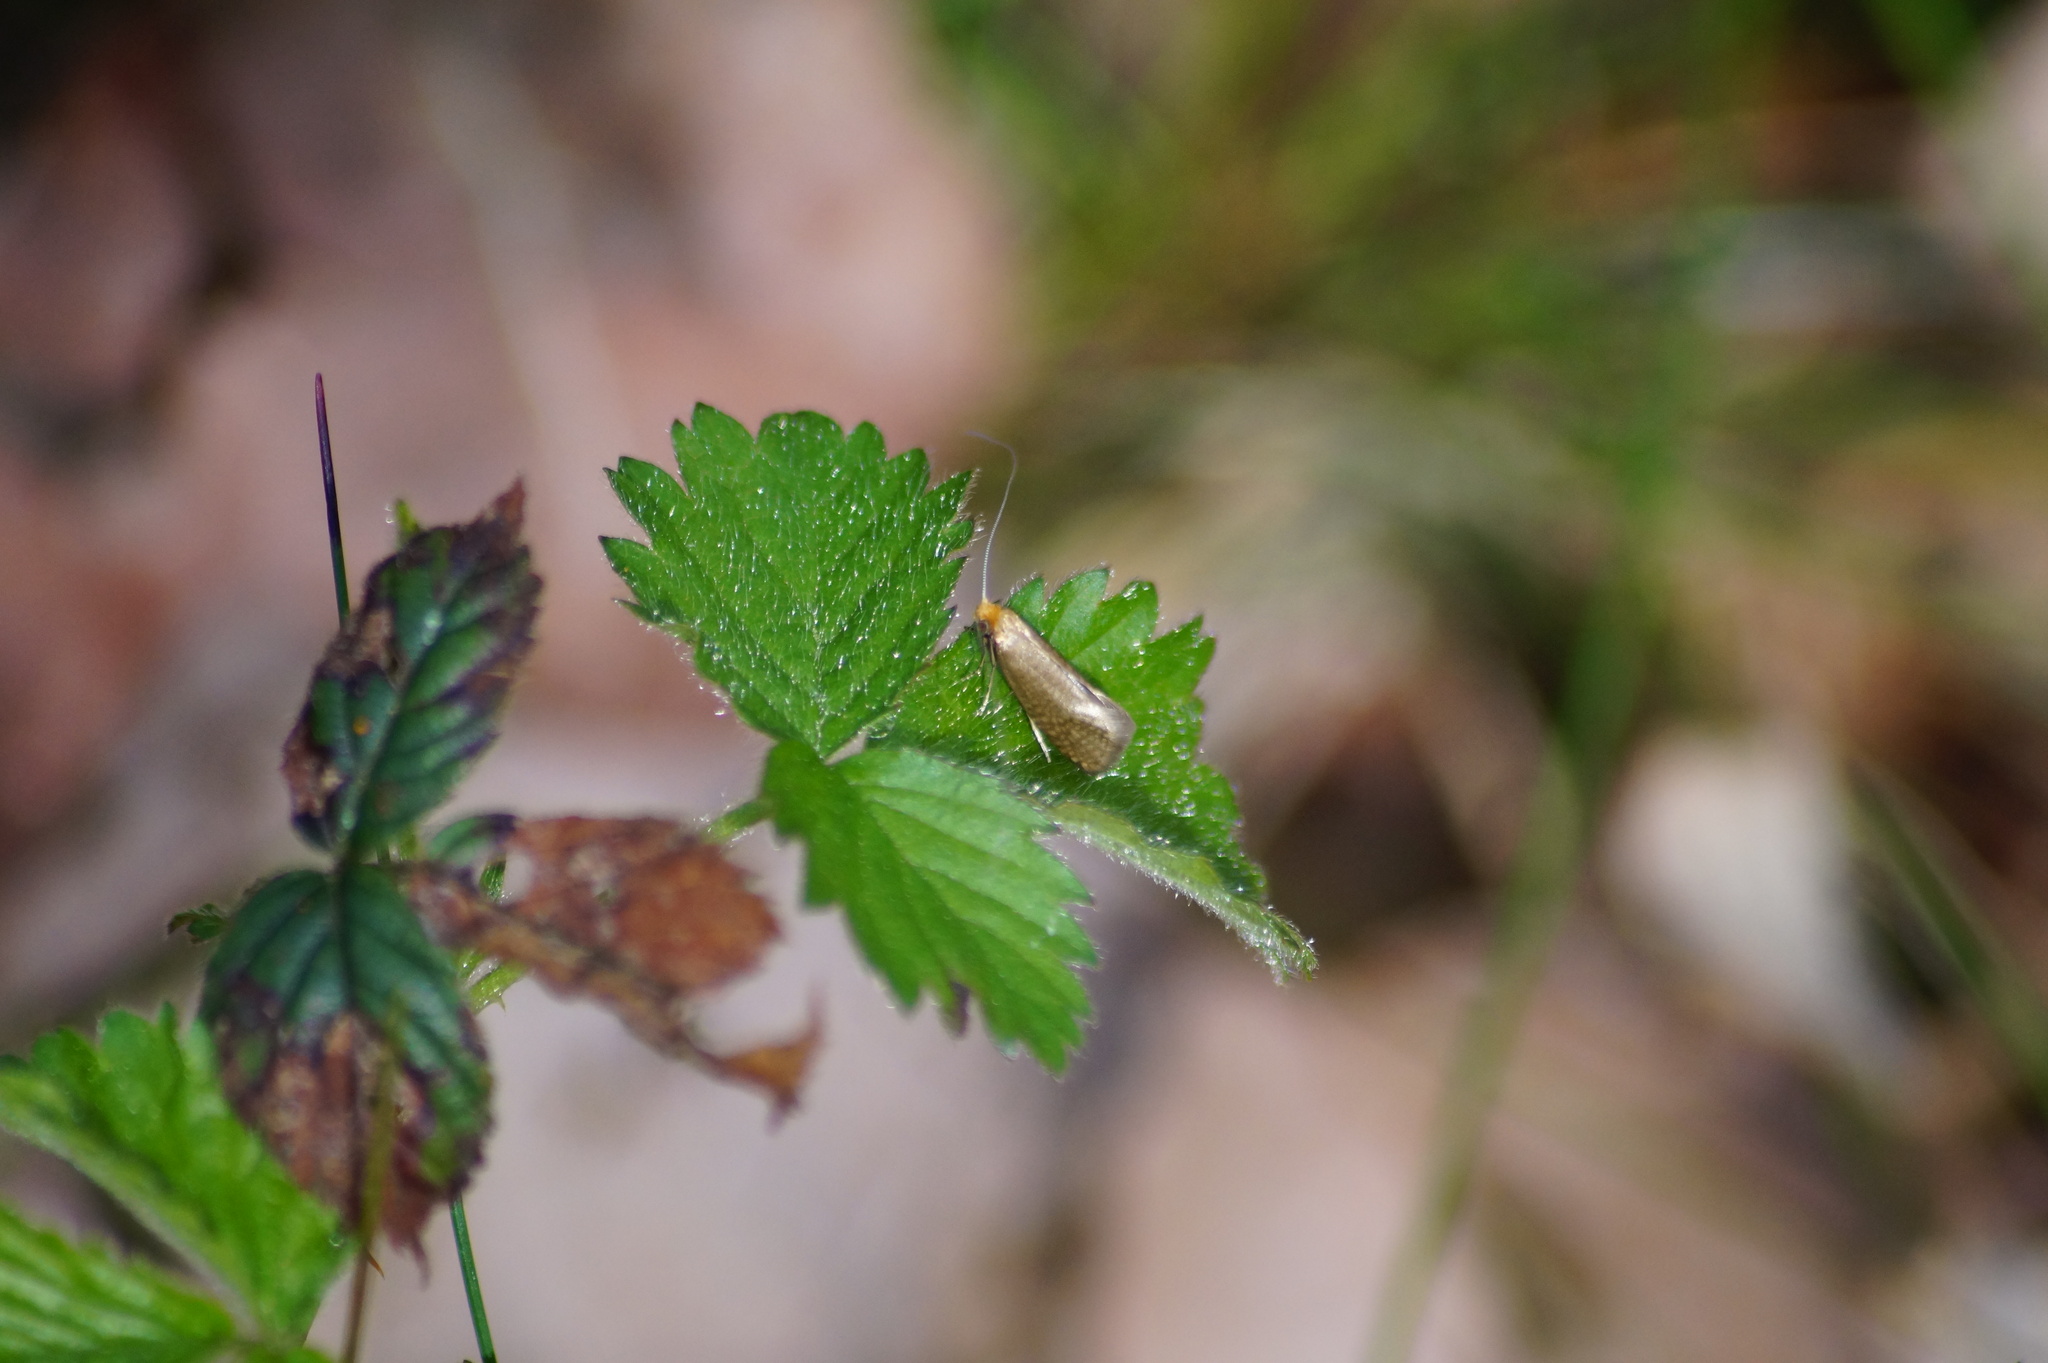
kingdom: Animalia
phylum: Arthropoda
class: Insecta
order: Lepidoptera
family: Adelidae
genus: Nematopogon
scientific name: Nematopogon adansoniella
